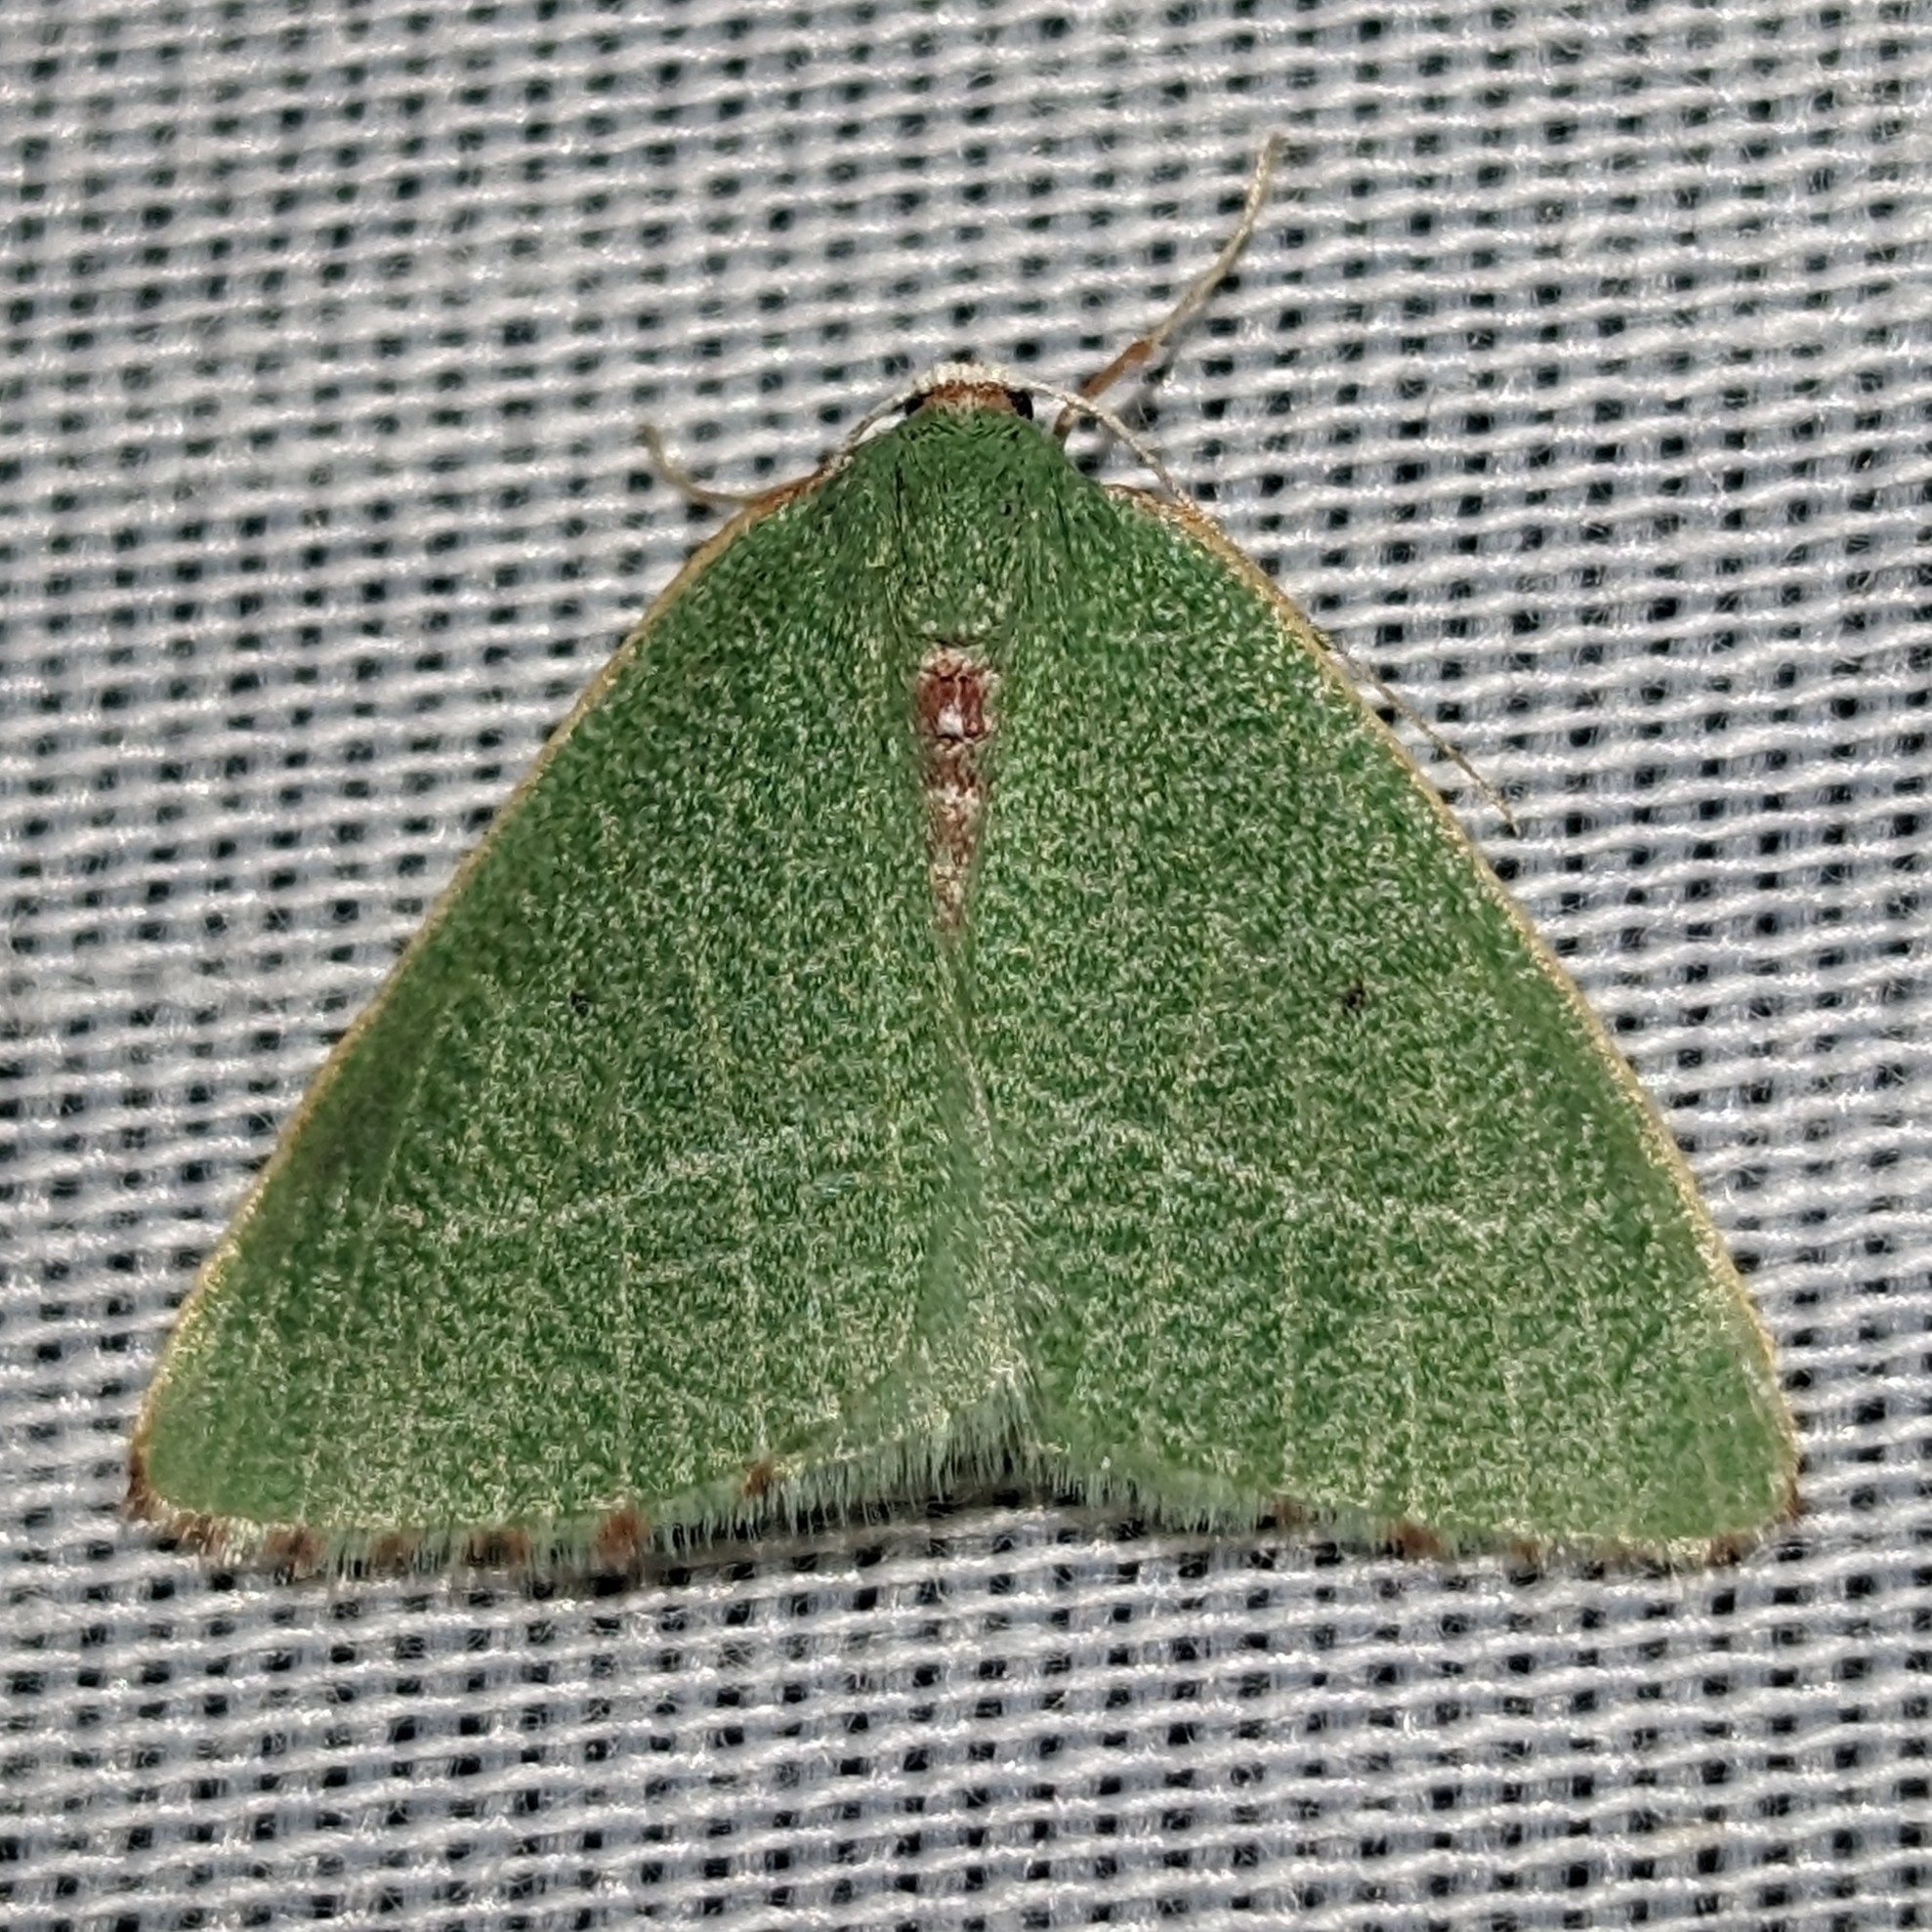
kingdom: Animalia
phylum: Arthropoda
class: Insecta
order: Lepidoptera
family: Geometridae
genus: Nemoria
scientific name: Nemoria pulcherrima
